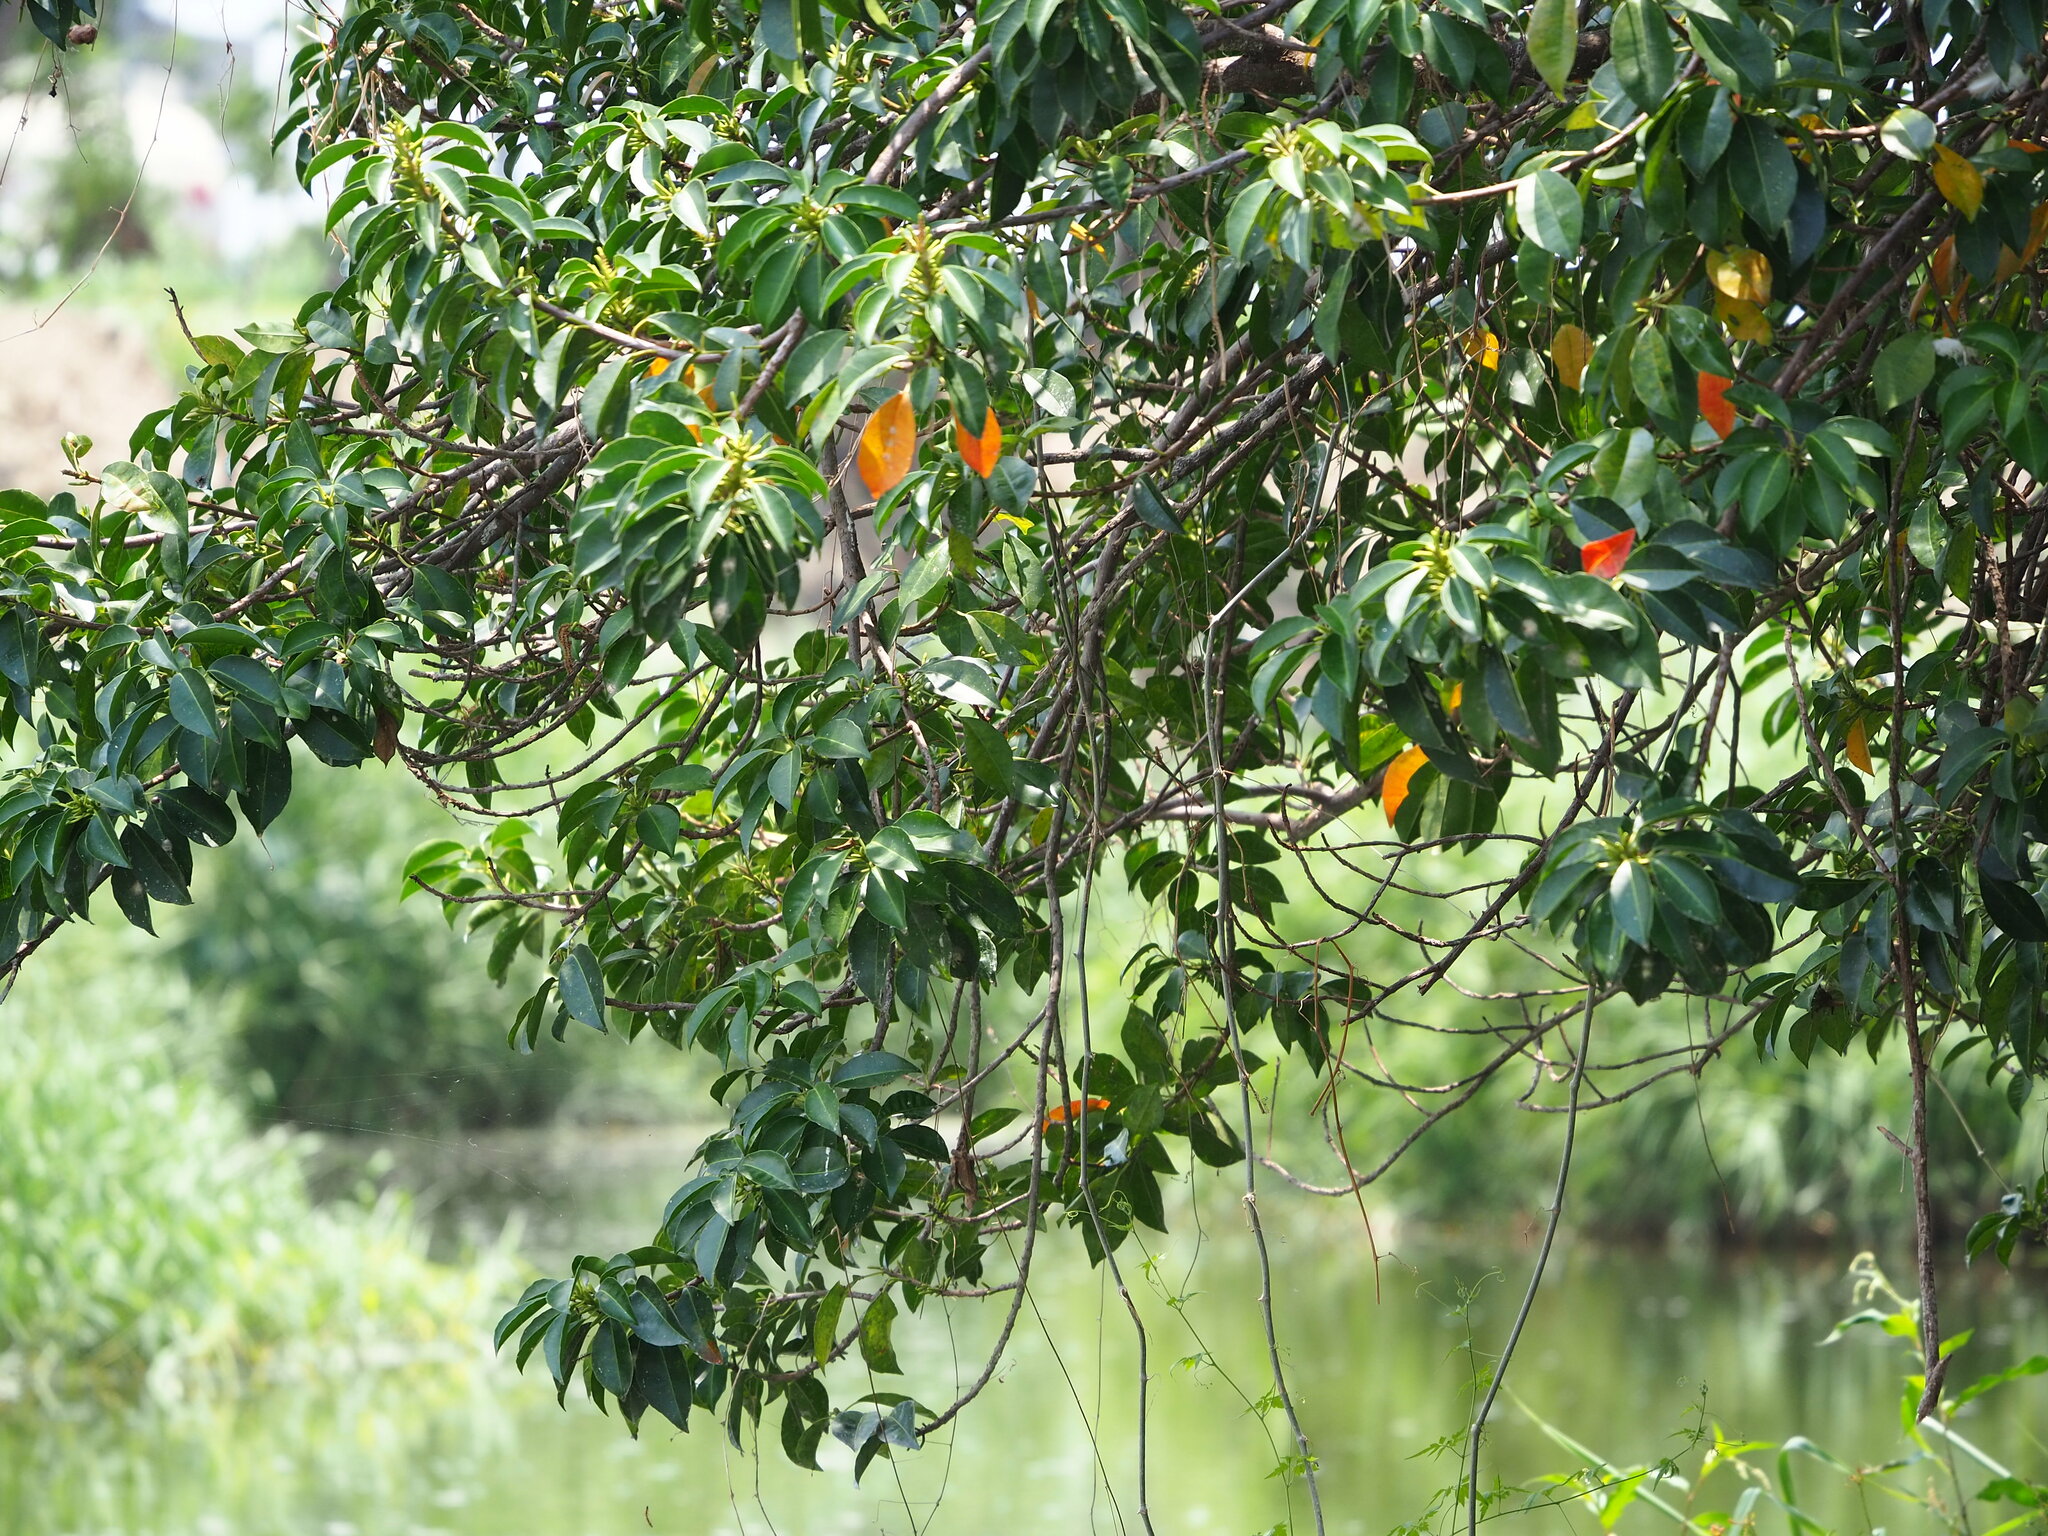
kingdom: Plantae
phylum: Tracheophyta
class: Magnoliopsida
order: Malpighiales
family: Euphorbiaceae
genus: Excoecaria
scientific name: Excoecaria agallocha
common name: River poisontree
